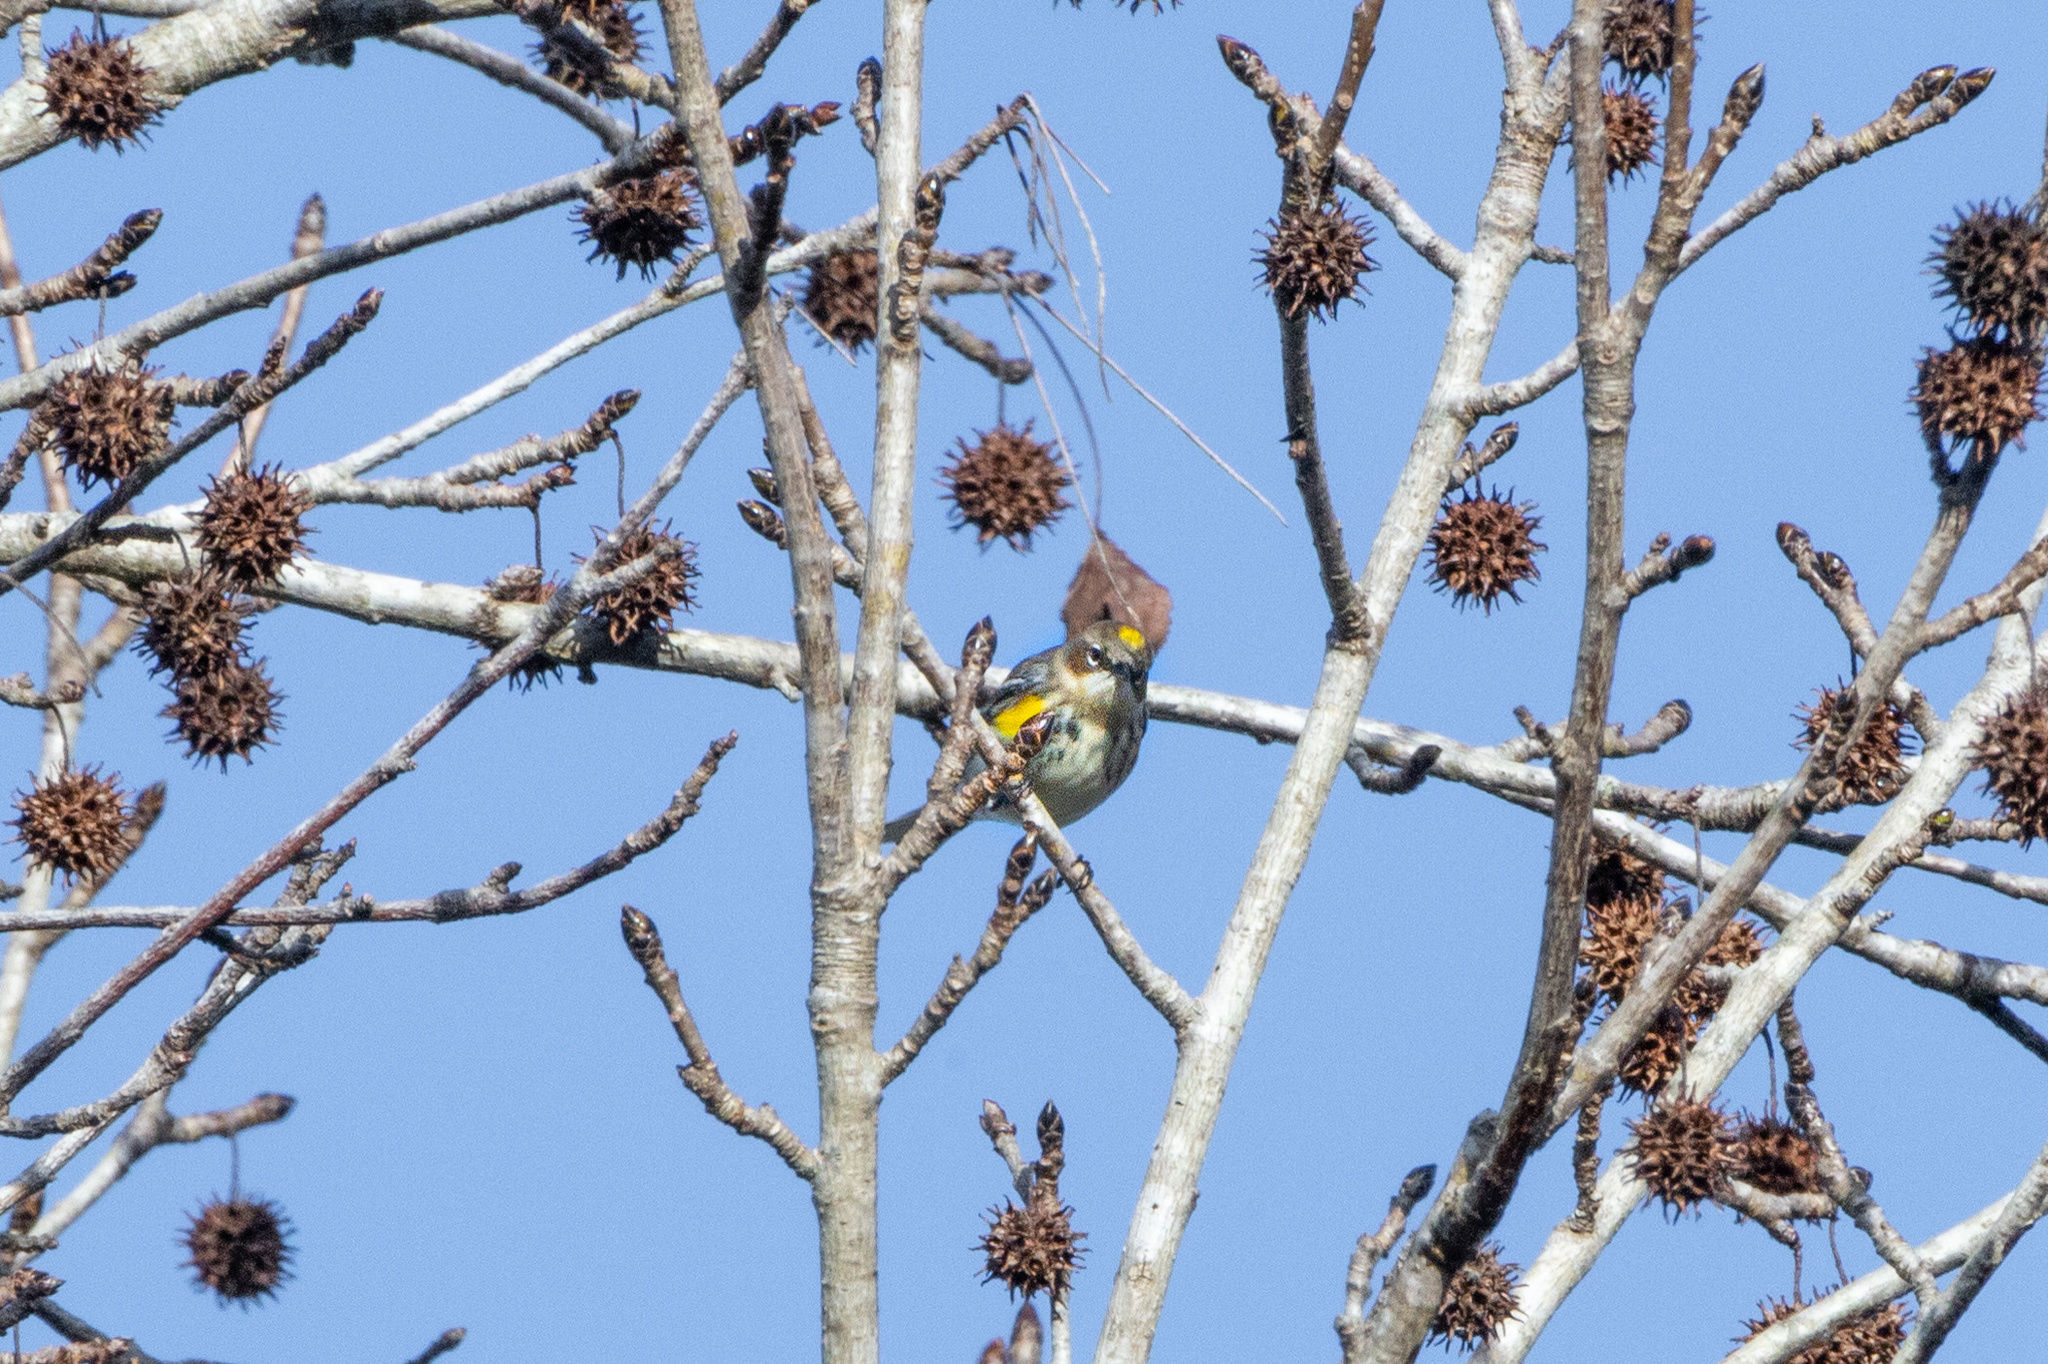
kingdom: Animalia
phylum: Chordata
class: Aves
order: Passeriformes
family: Parulidae
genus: Setophaga
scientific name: Setophaga coronata
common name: Myrtle warbler
